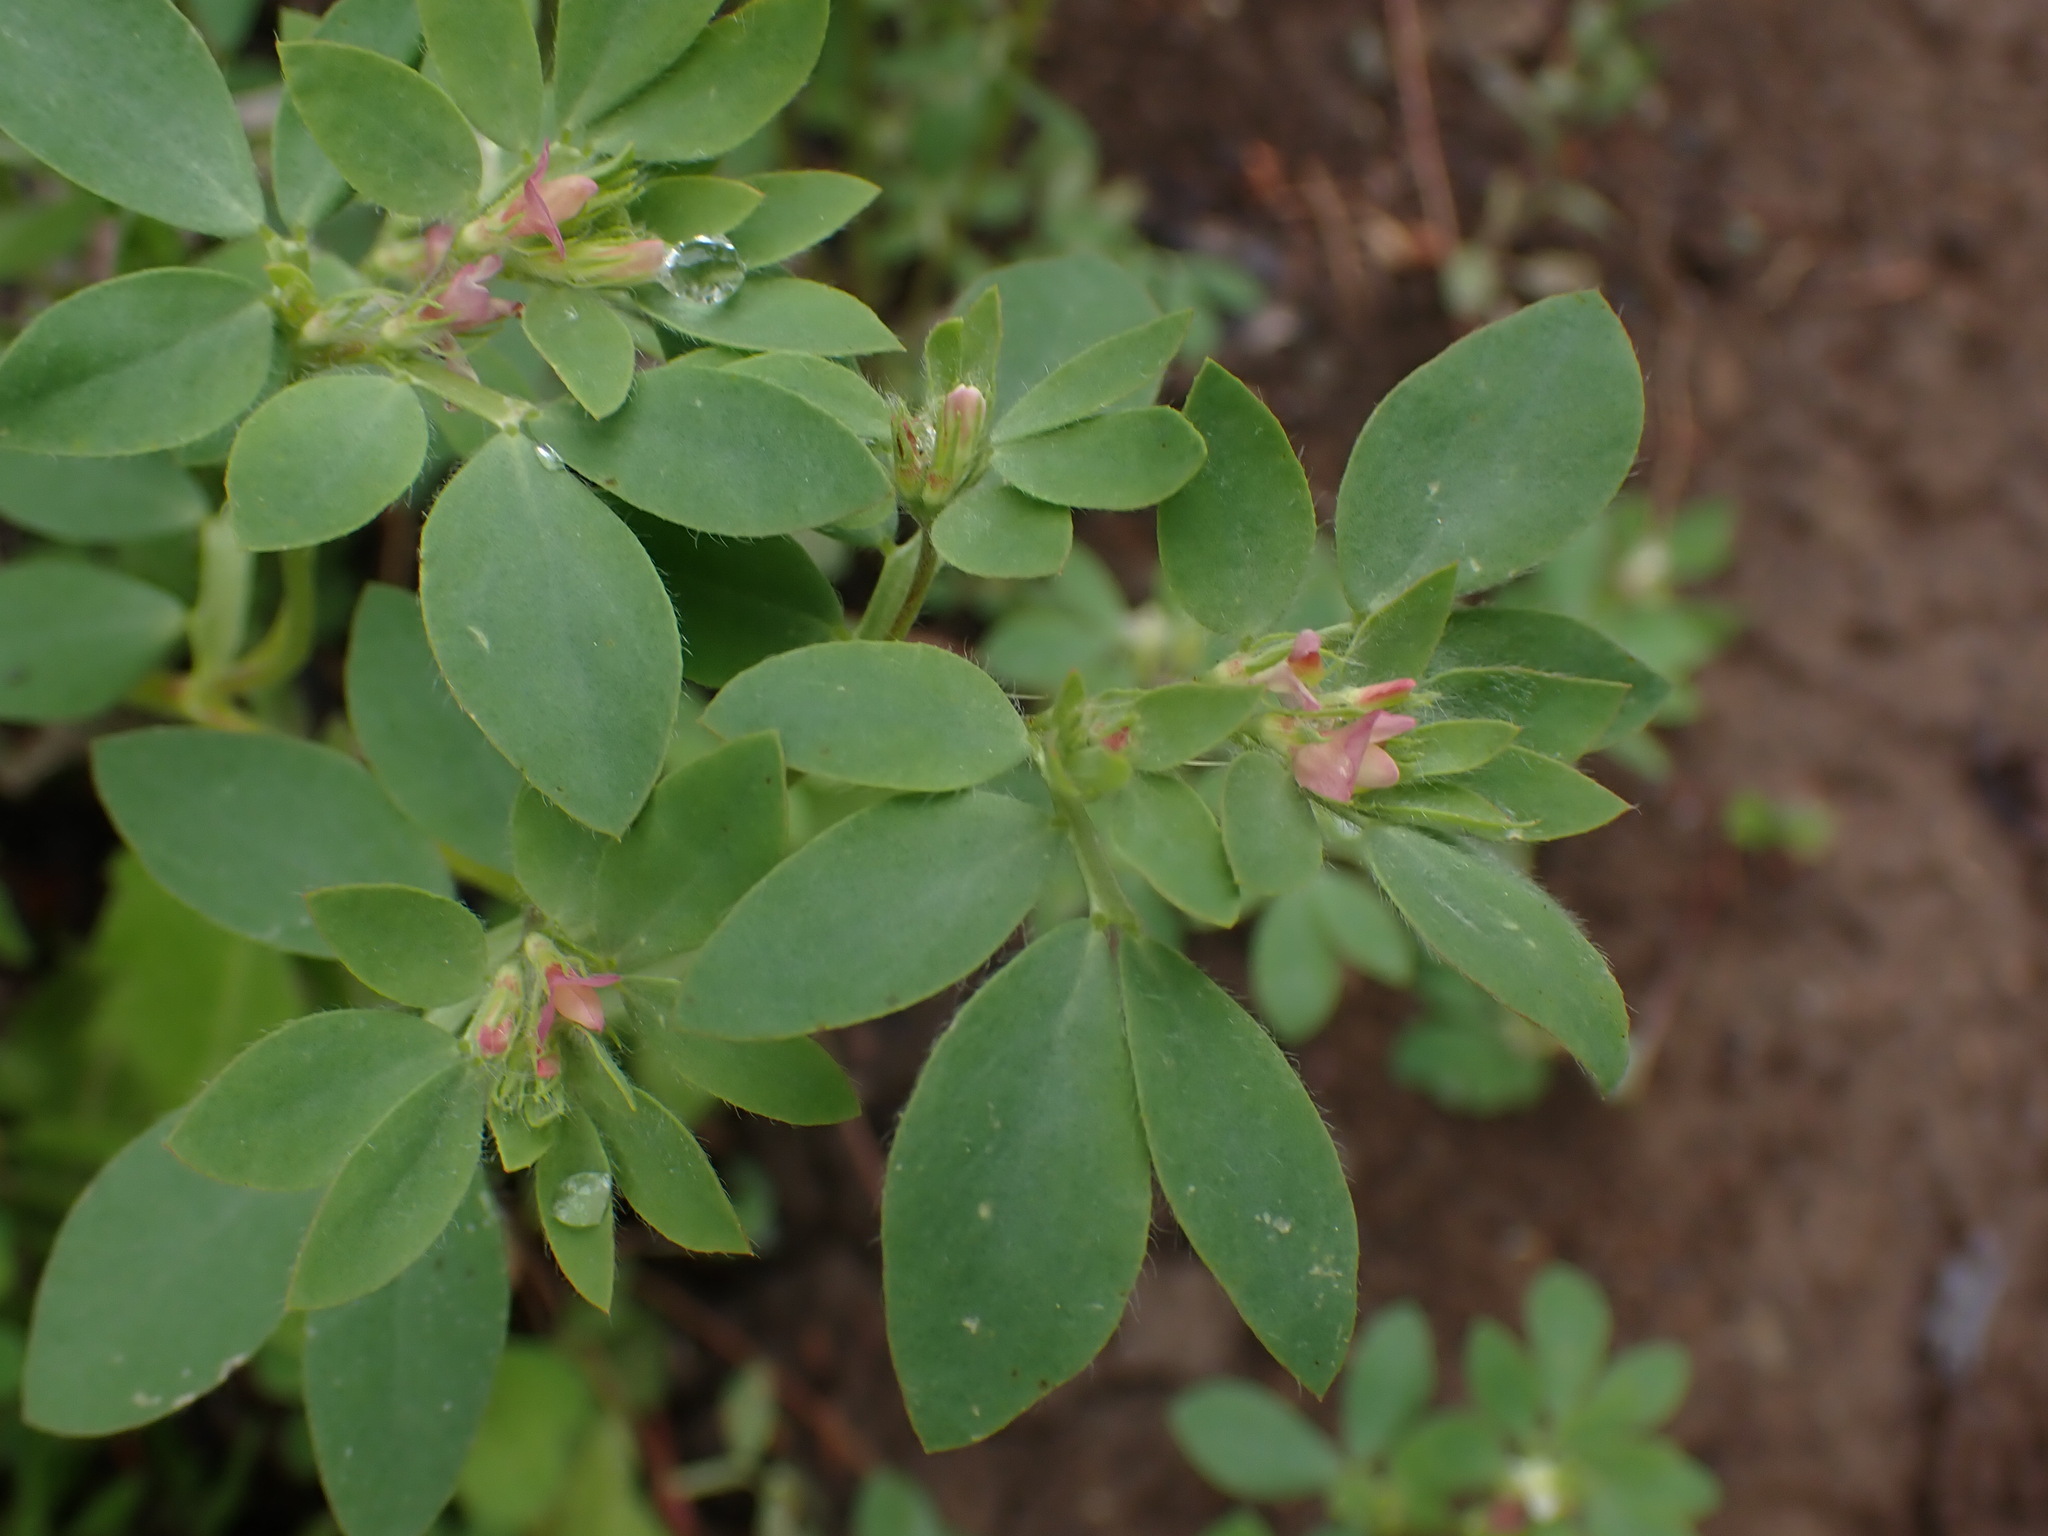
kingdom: Plantae
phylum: Tracheophyta
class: Magnoliopsida
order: Fabales
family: Fabaceae
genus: Acmispon
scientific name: Acmispon denticulatus
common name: Meadow bird's-foot trefoil
